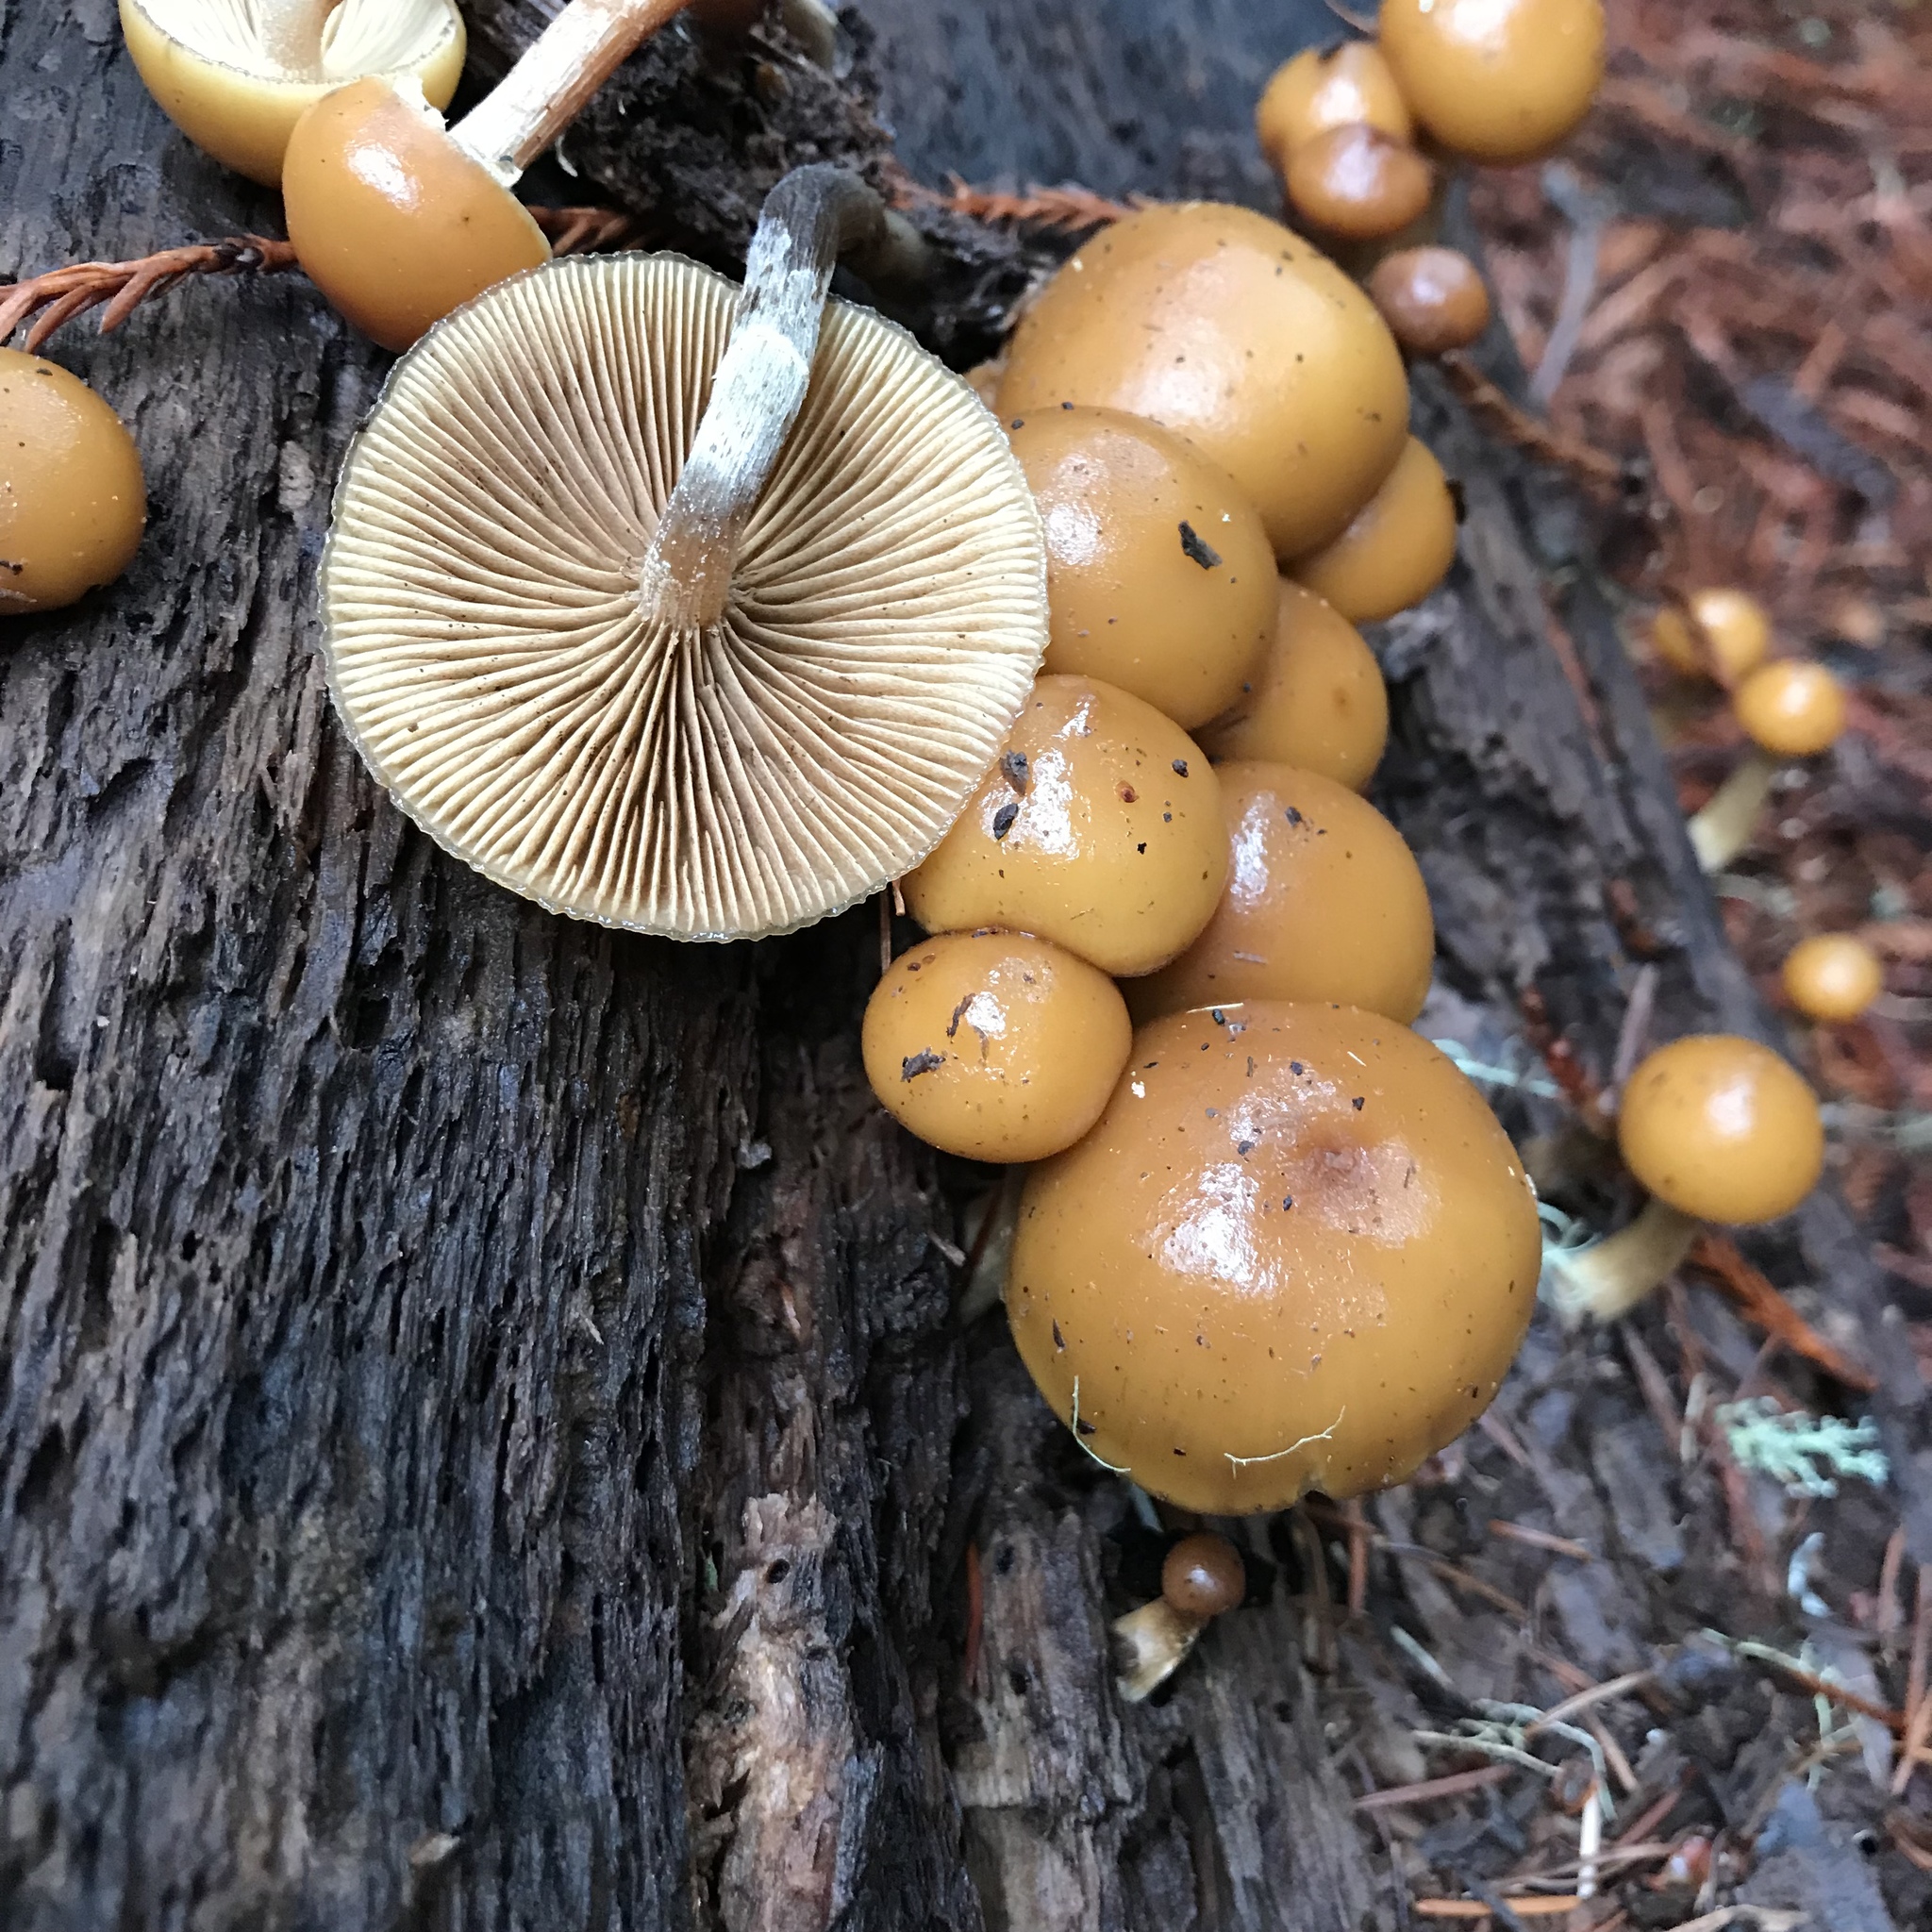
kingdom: Fungi
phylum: Basidiomycota
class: Agaricomycetes
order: Agaricales
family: Hymenogastraceae
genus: Galerina
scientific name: Galerina marginata
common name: Funeral bell
